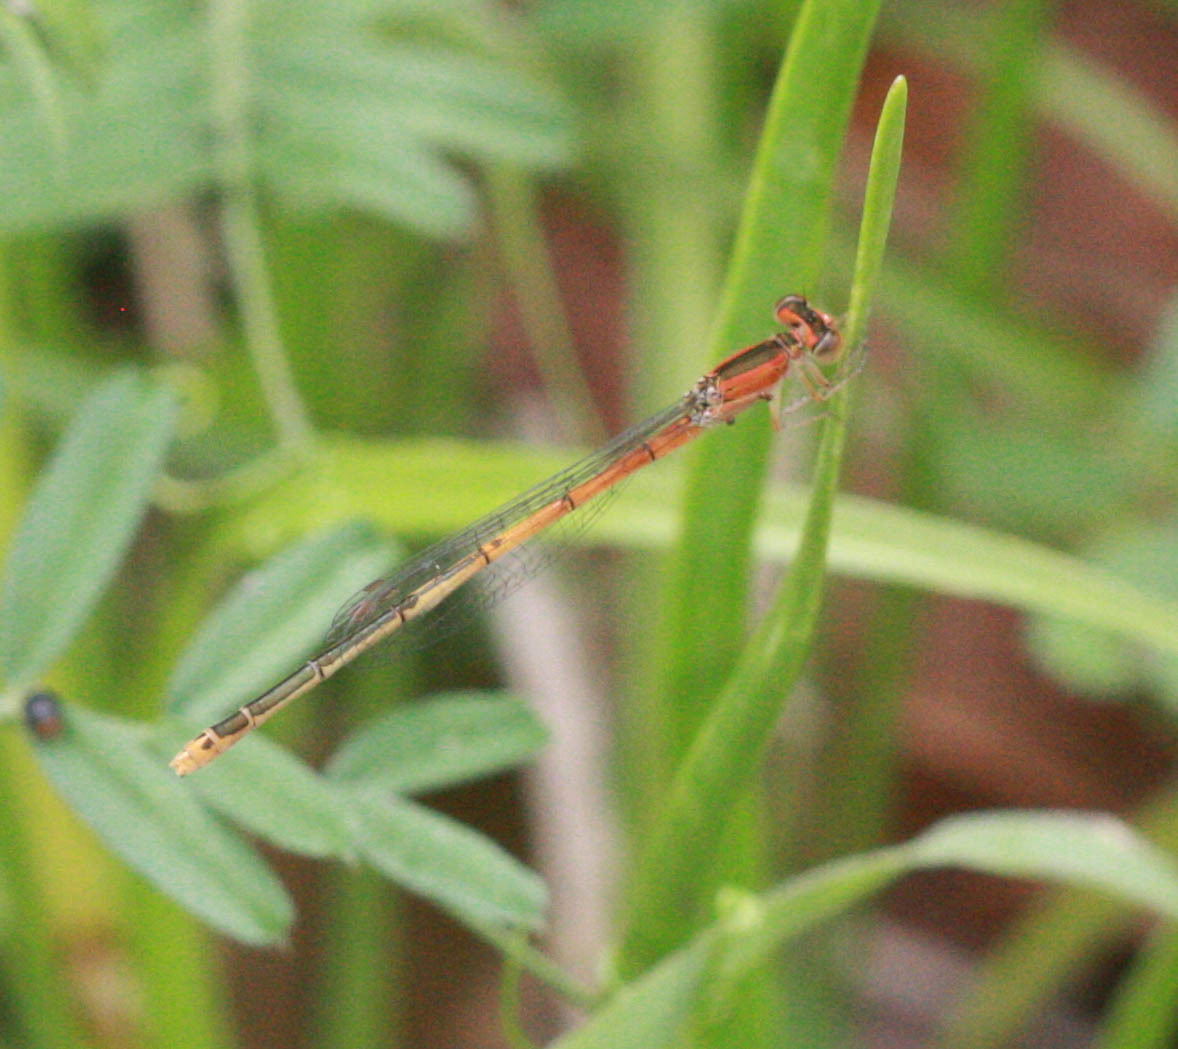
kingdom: Animalia
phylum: Arthropoda
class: Insecta
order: Odonata
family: Coenagrionidae
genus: Ischnura
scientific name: Ischnura hastata
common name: Citrine forktail
